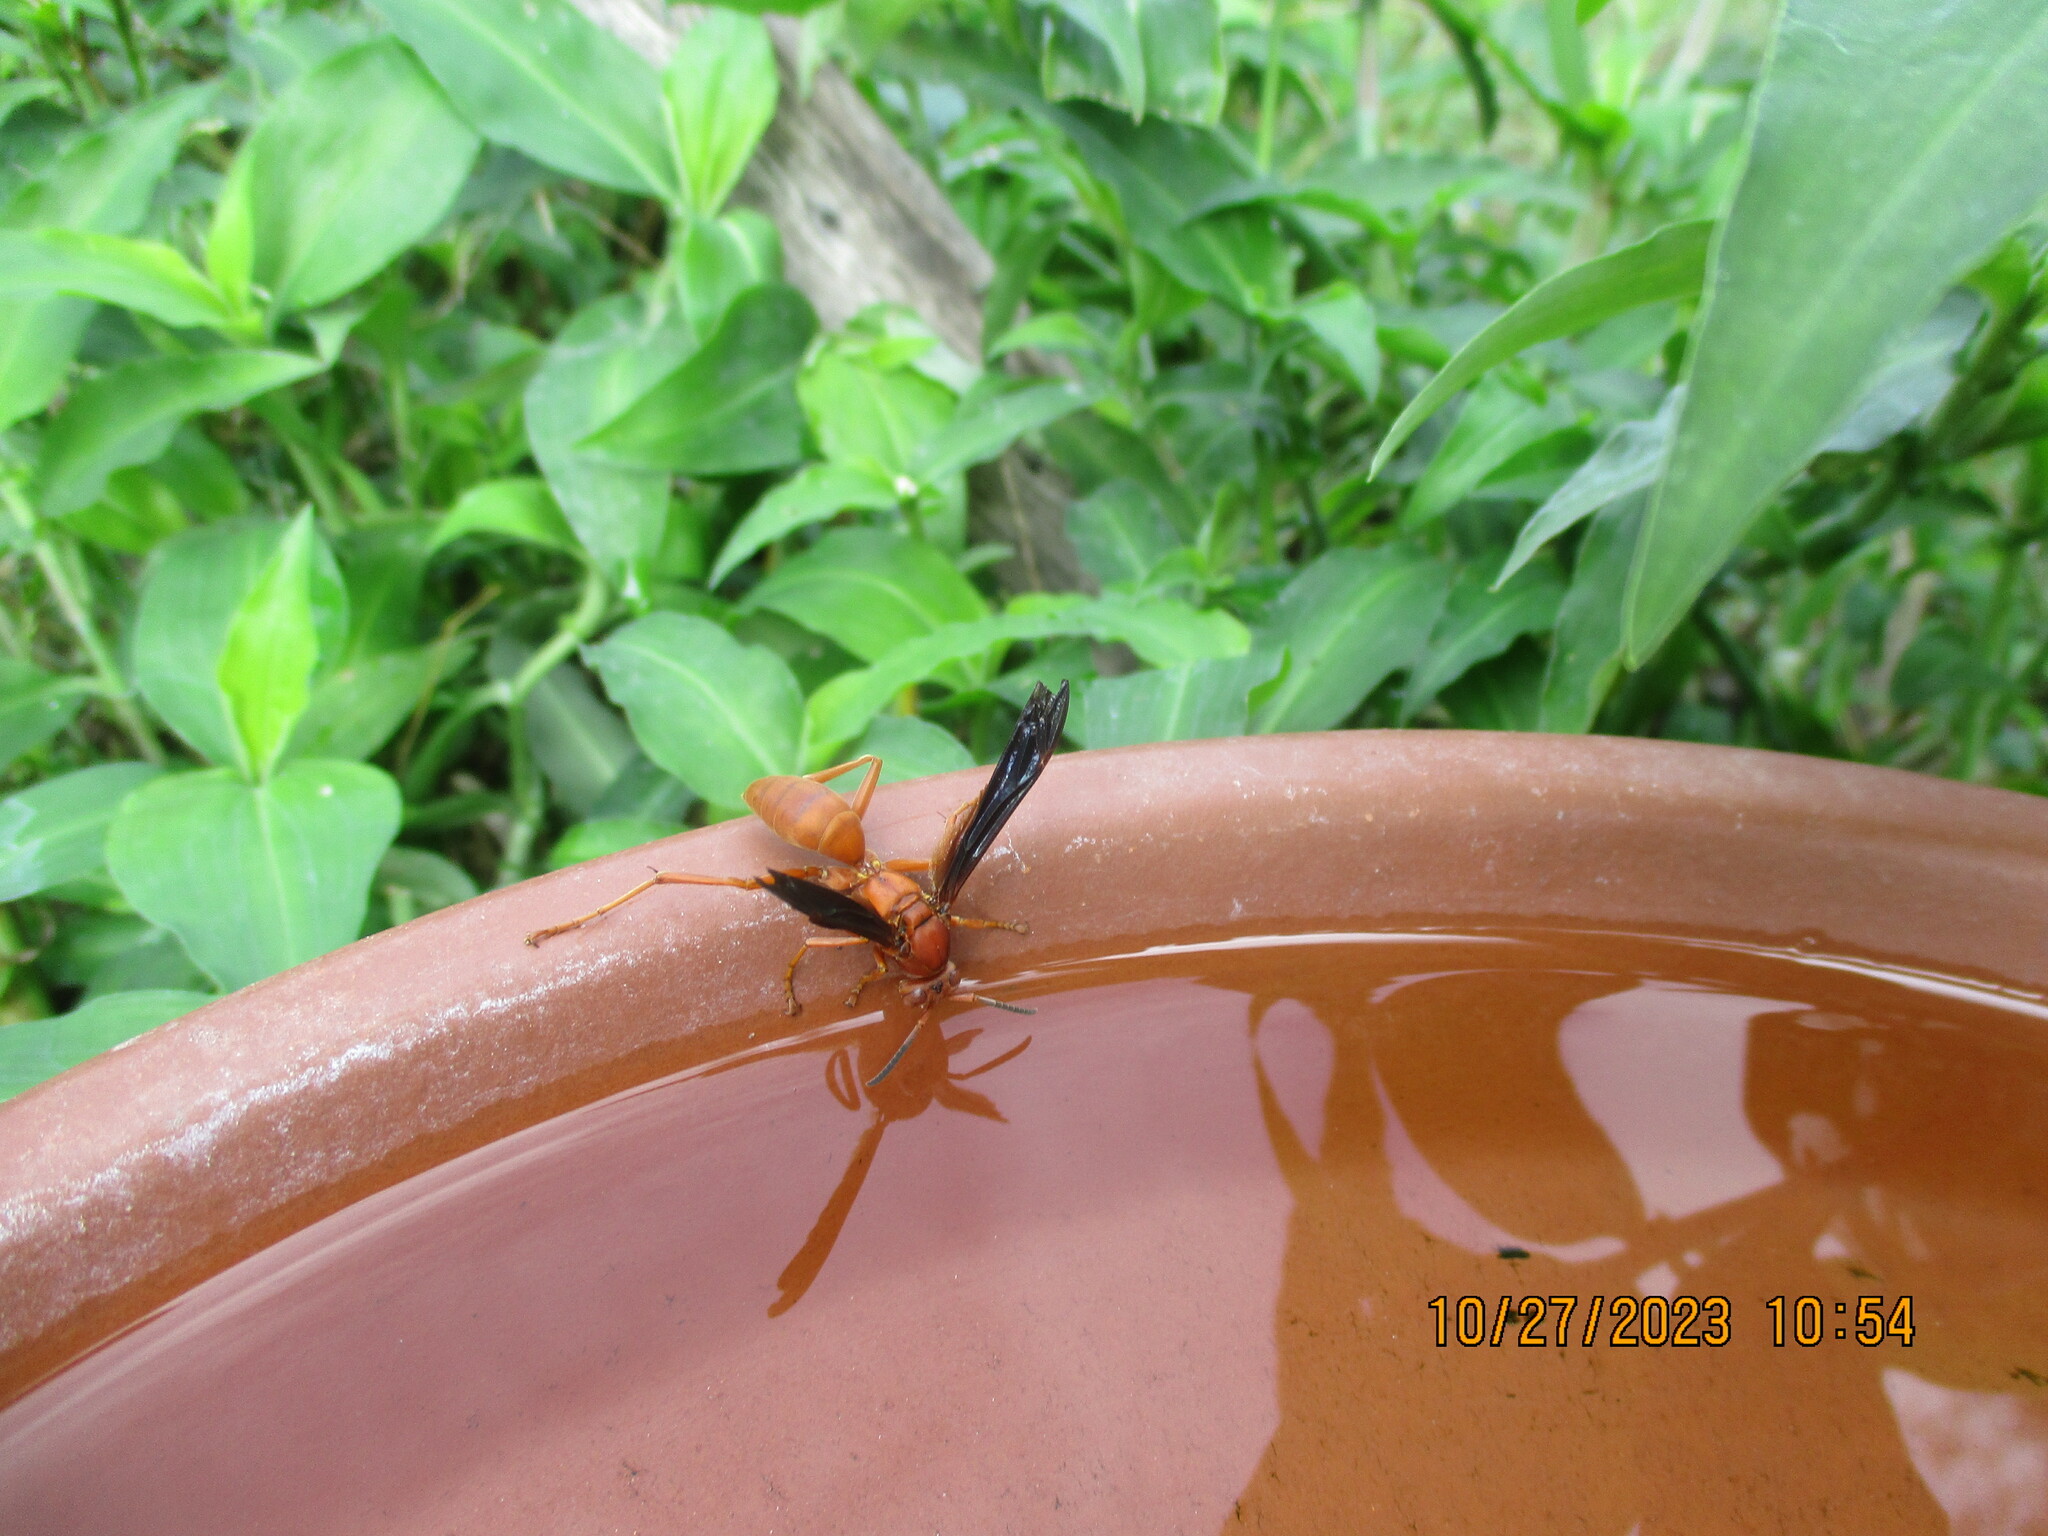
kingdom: Animalia
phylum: Arthropoda
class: Insecta
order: Hymenoptera
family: Eumenidae
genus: Polistes
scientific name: Polistes carolina
